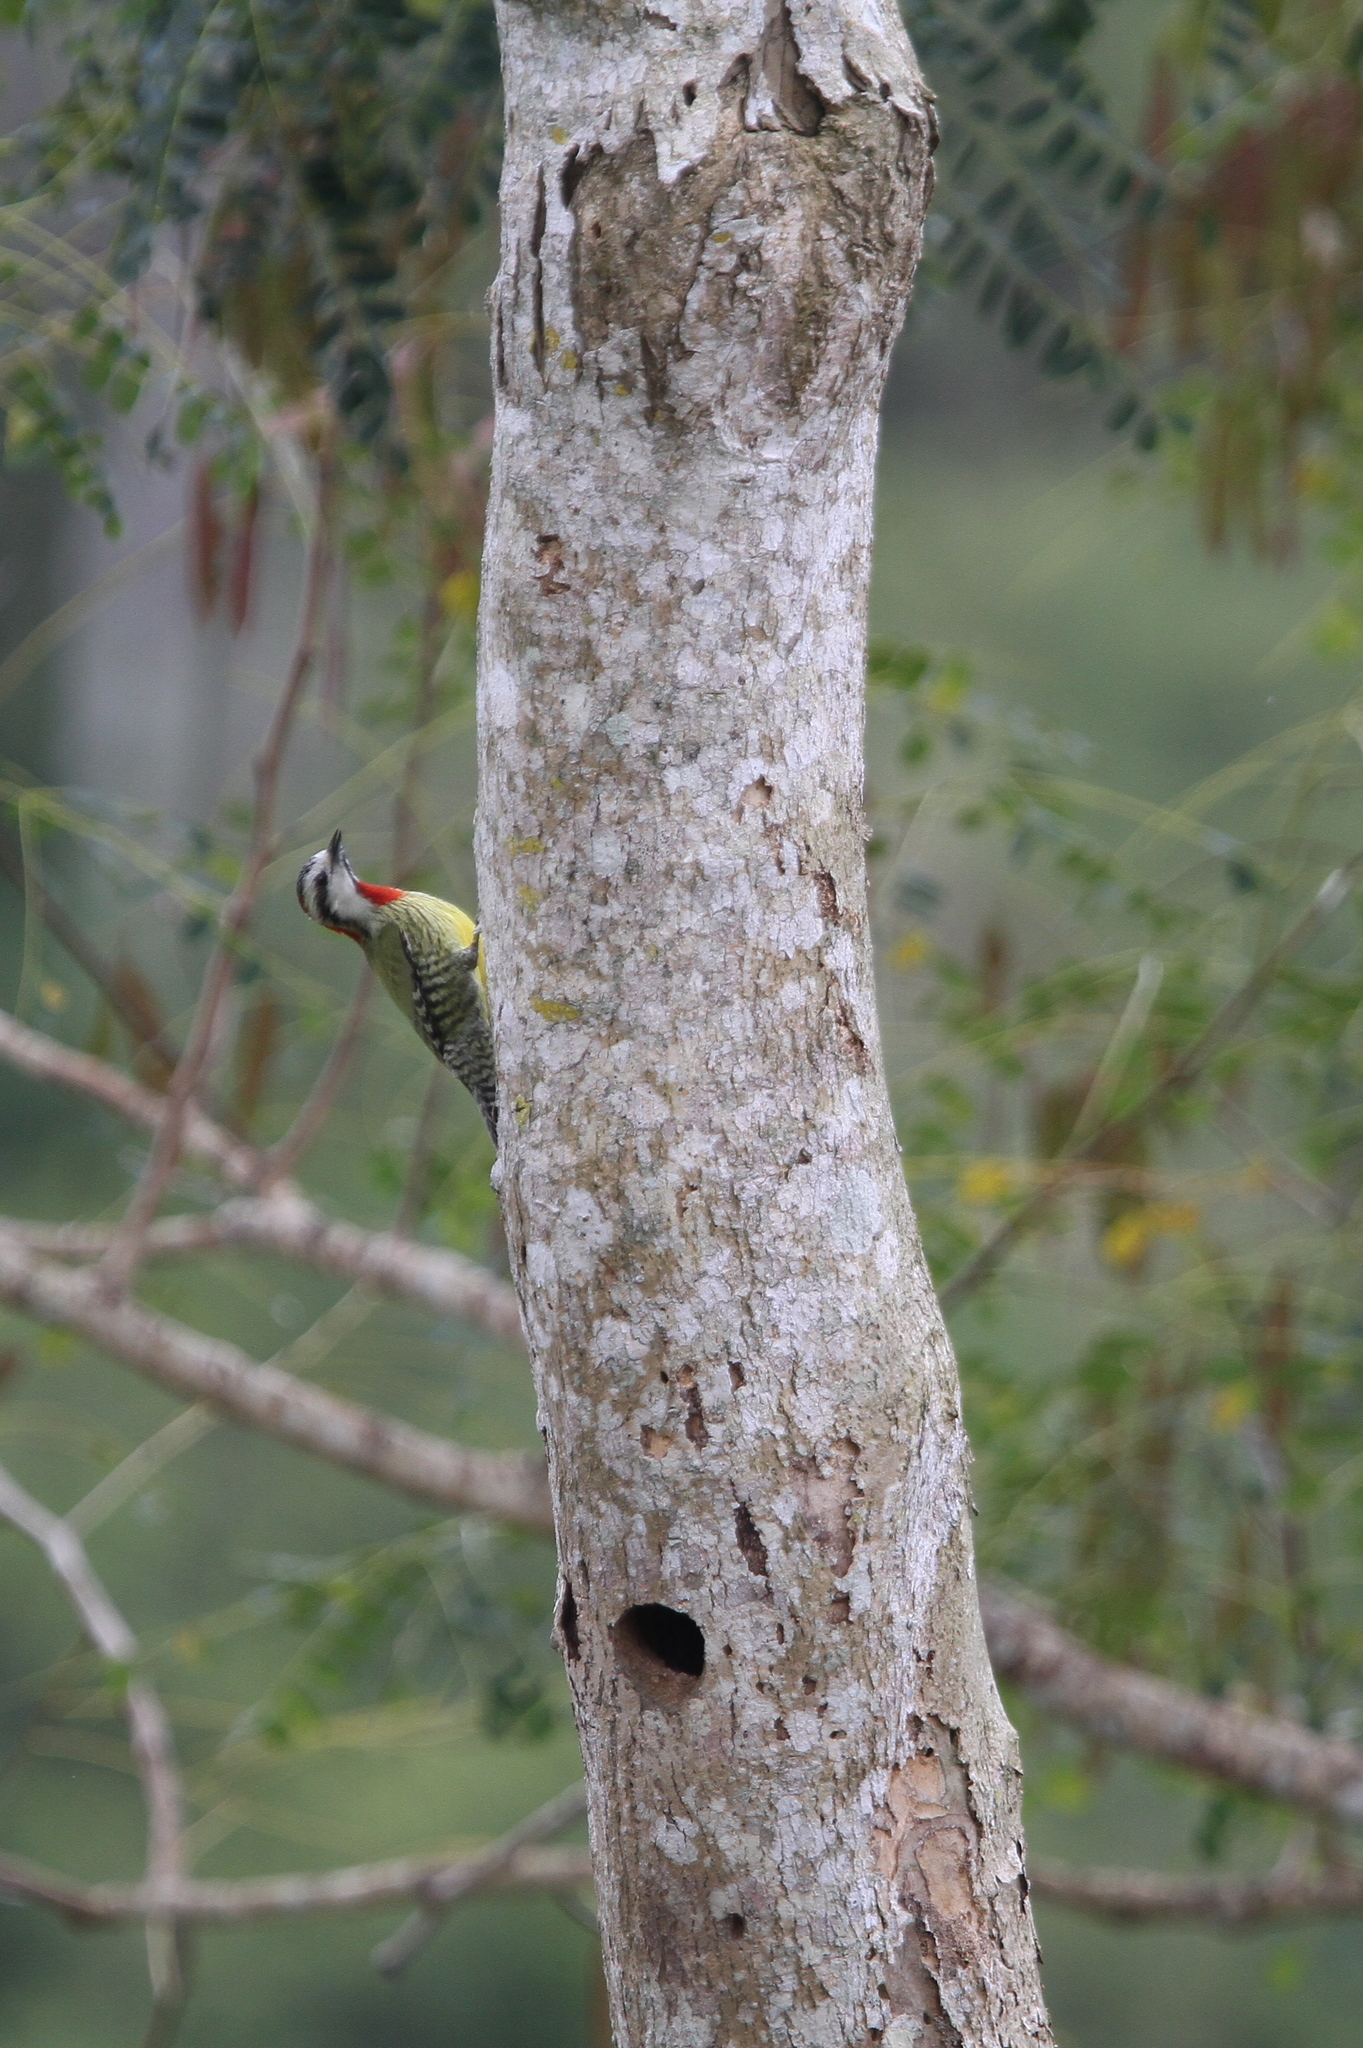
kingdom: Animalia
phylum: Chordata
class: Aves
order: Piciformes
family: Picidae
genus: Xiphidiopicus
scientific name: Xiphidiopicus percussus
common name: Cuban green woodpecker
